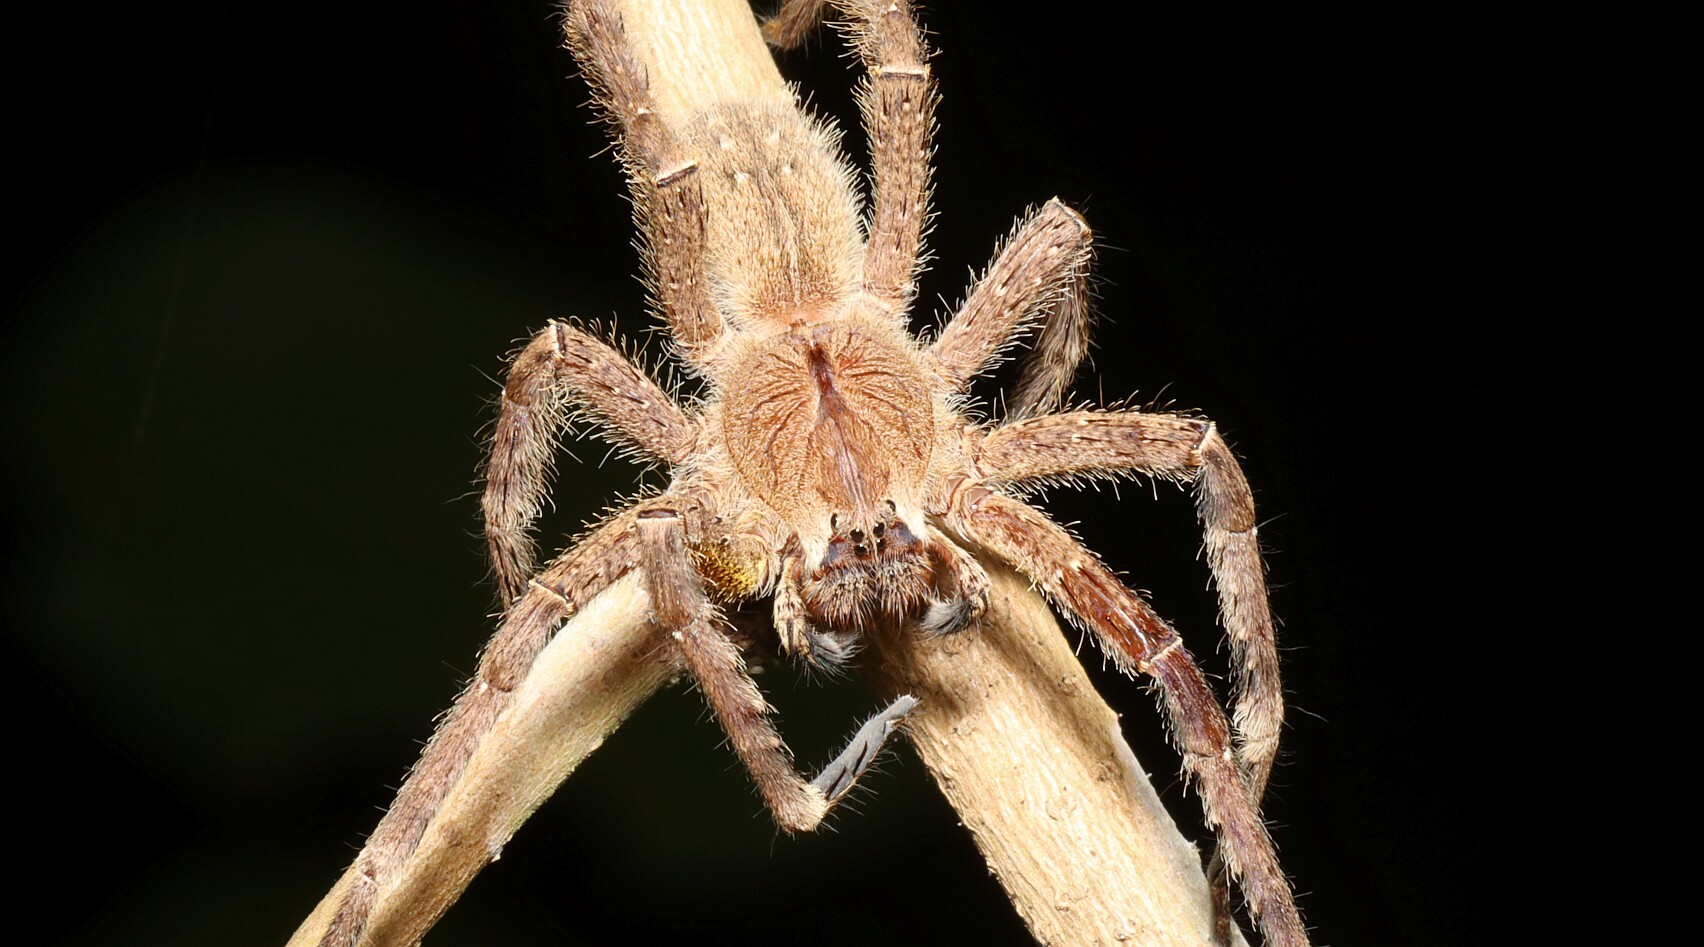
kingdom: Animalia
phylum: Arthropoda
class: Arachnida
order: Araneae
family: Ctenidae
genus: Phoneutria
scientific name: Phoneutria boliviensis
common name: Wandering spiders
